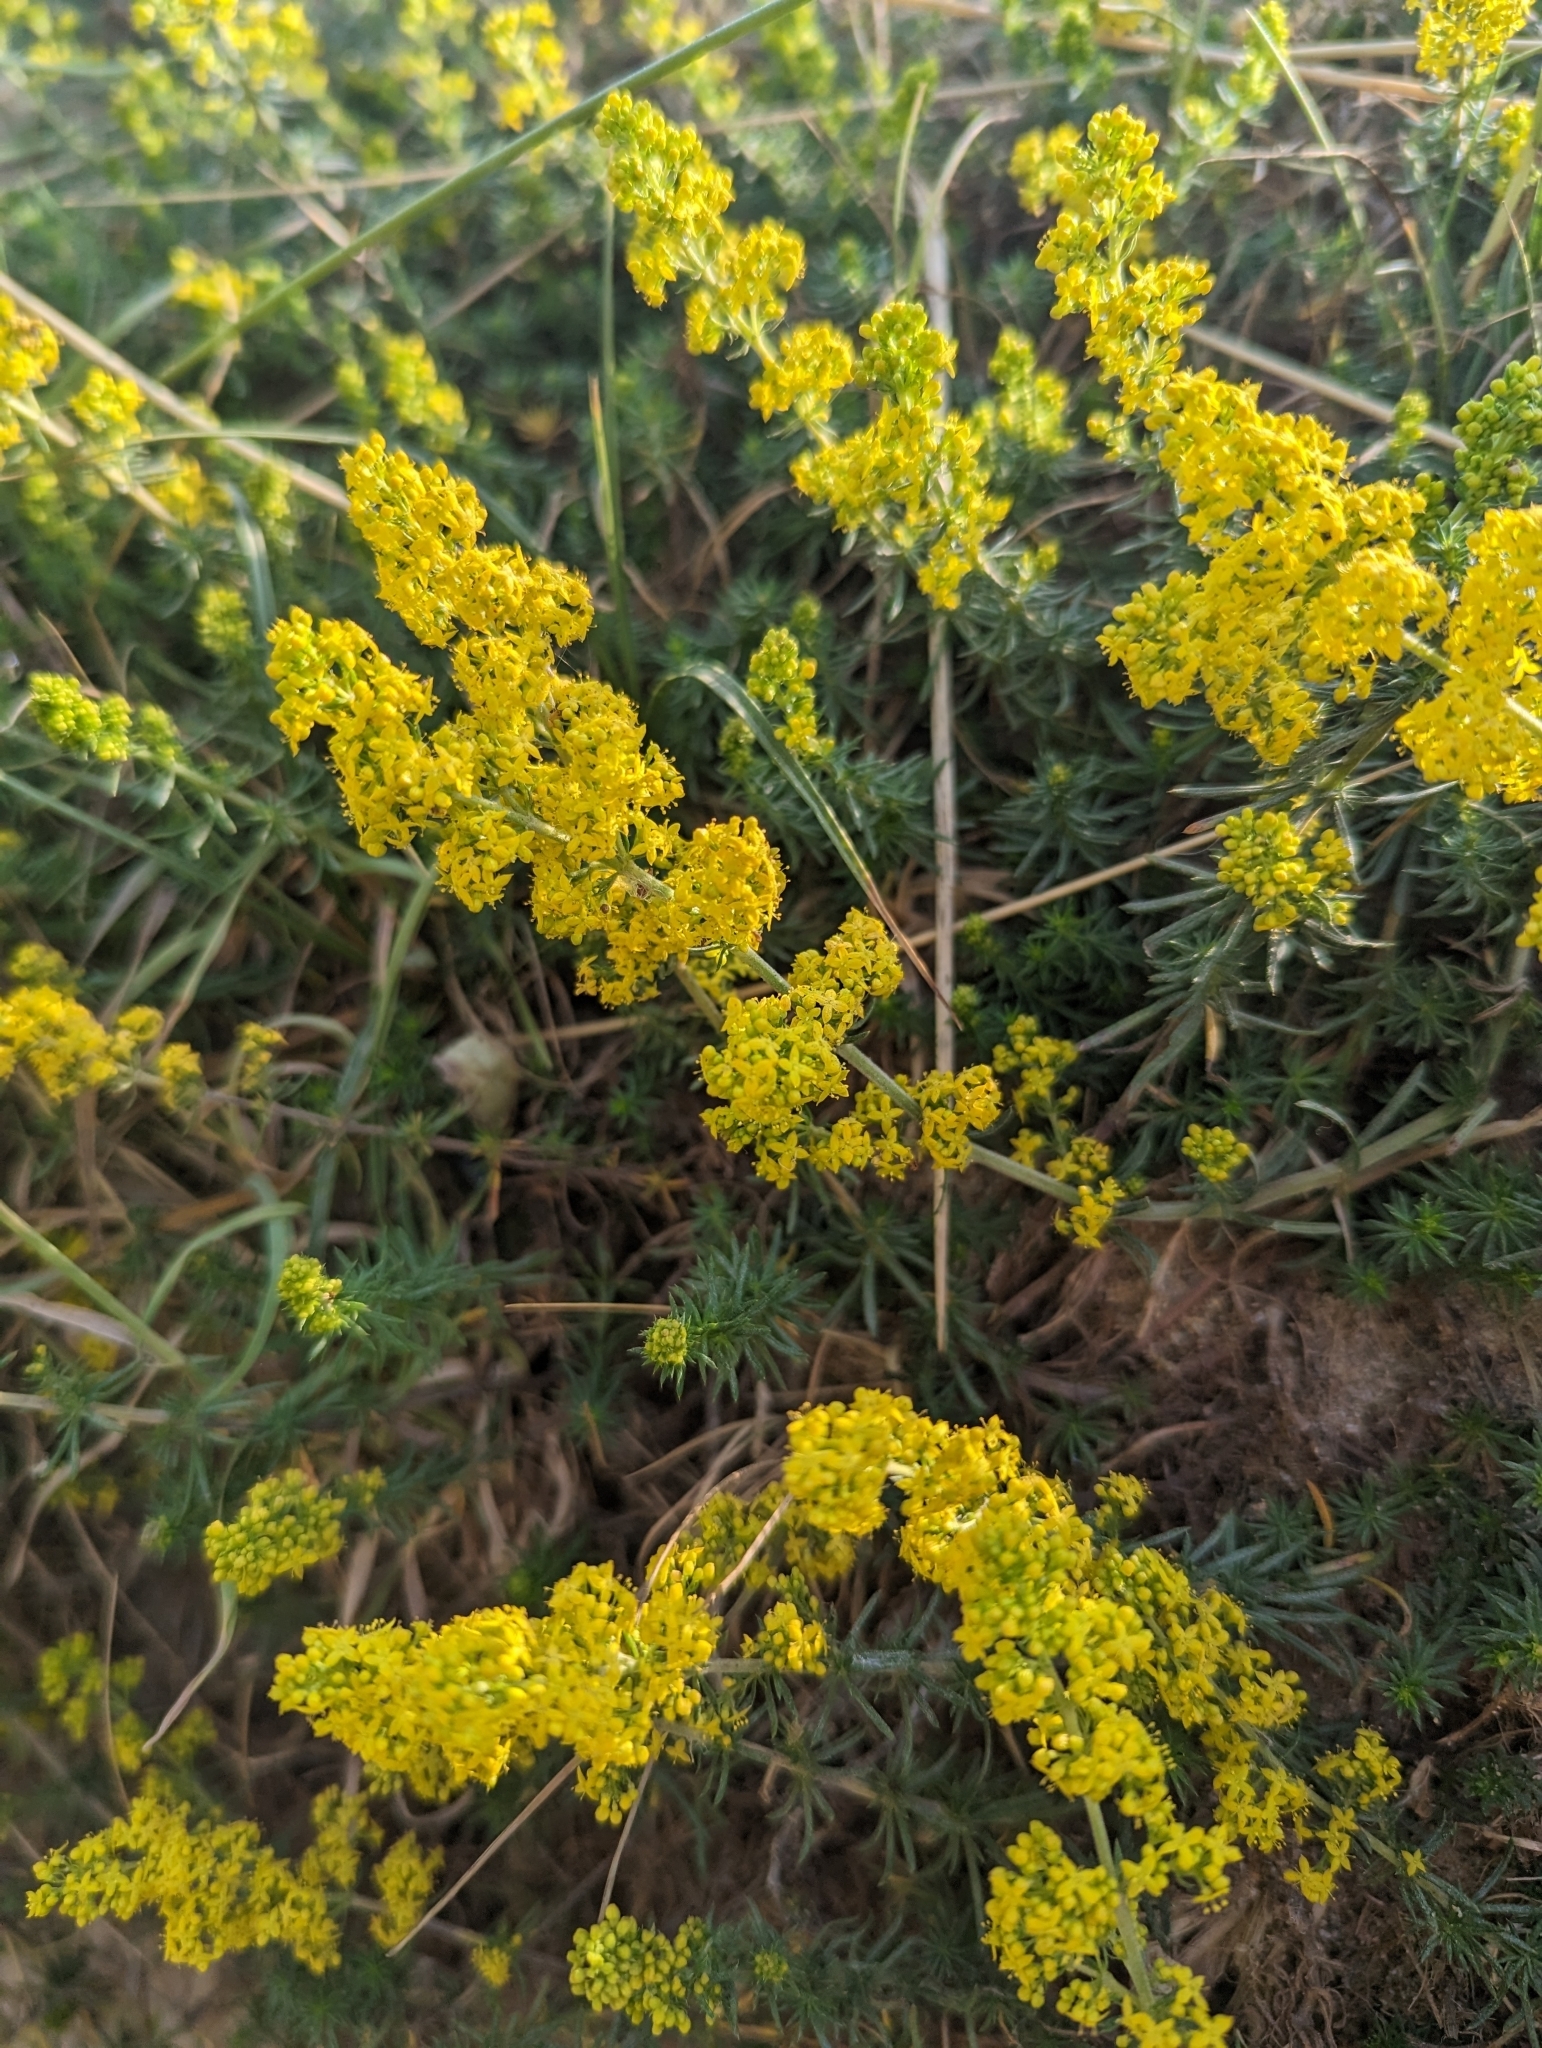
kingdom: Plantae
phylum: Tracheophyta
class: Magnoliopsida
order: Gentianales
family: Rubiaceae
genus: Galium
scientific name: Galium verum
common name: Lady's bedstraw
